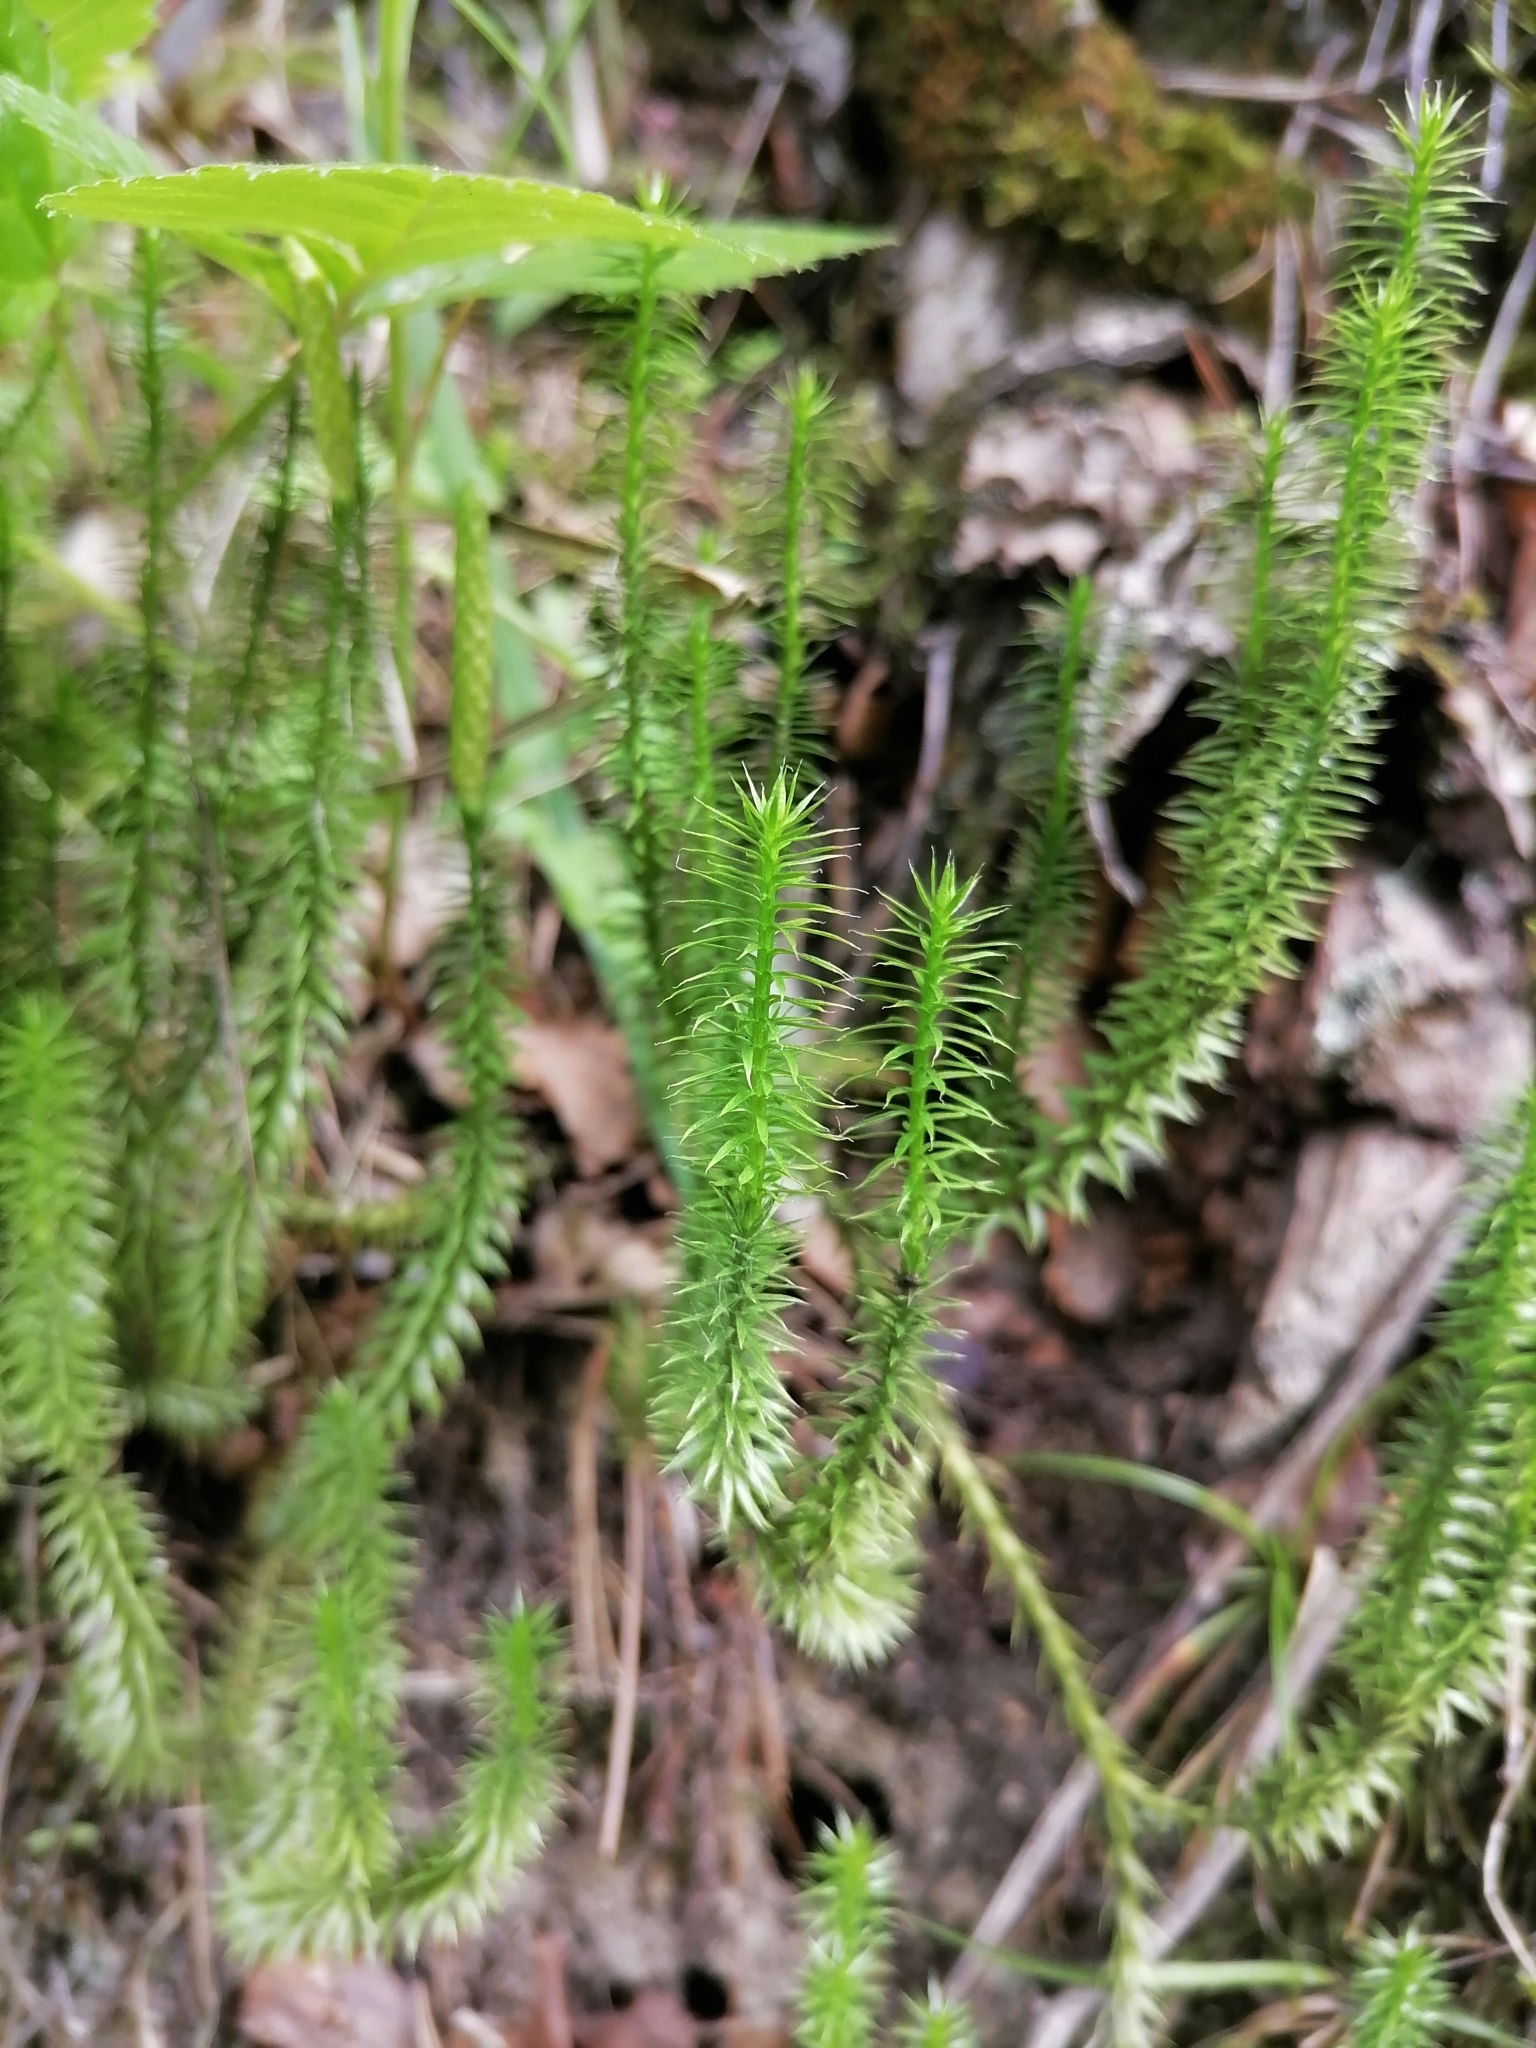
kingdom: Plantae
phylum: Tracheophyta
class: Lycopodiopsida
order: Lycopodiales
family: Lycopodiaceae
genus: Spinulum
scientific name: Spinulum annotinum
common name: Interrupted club-moss
